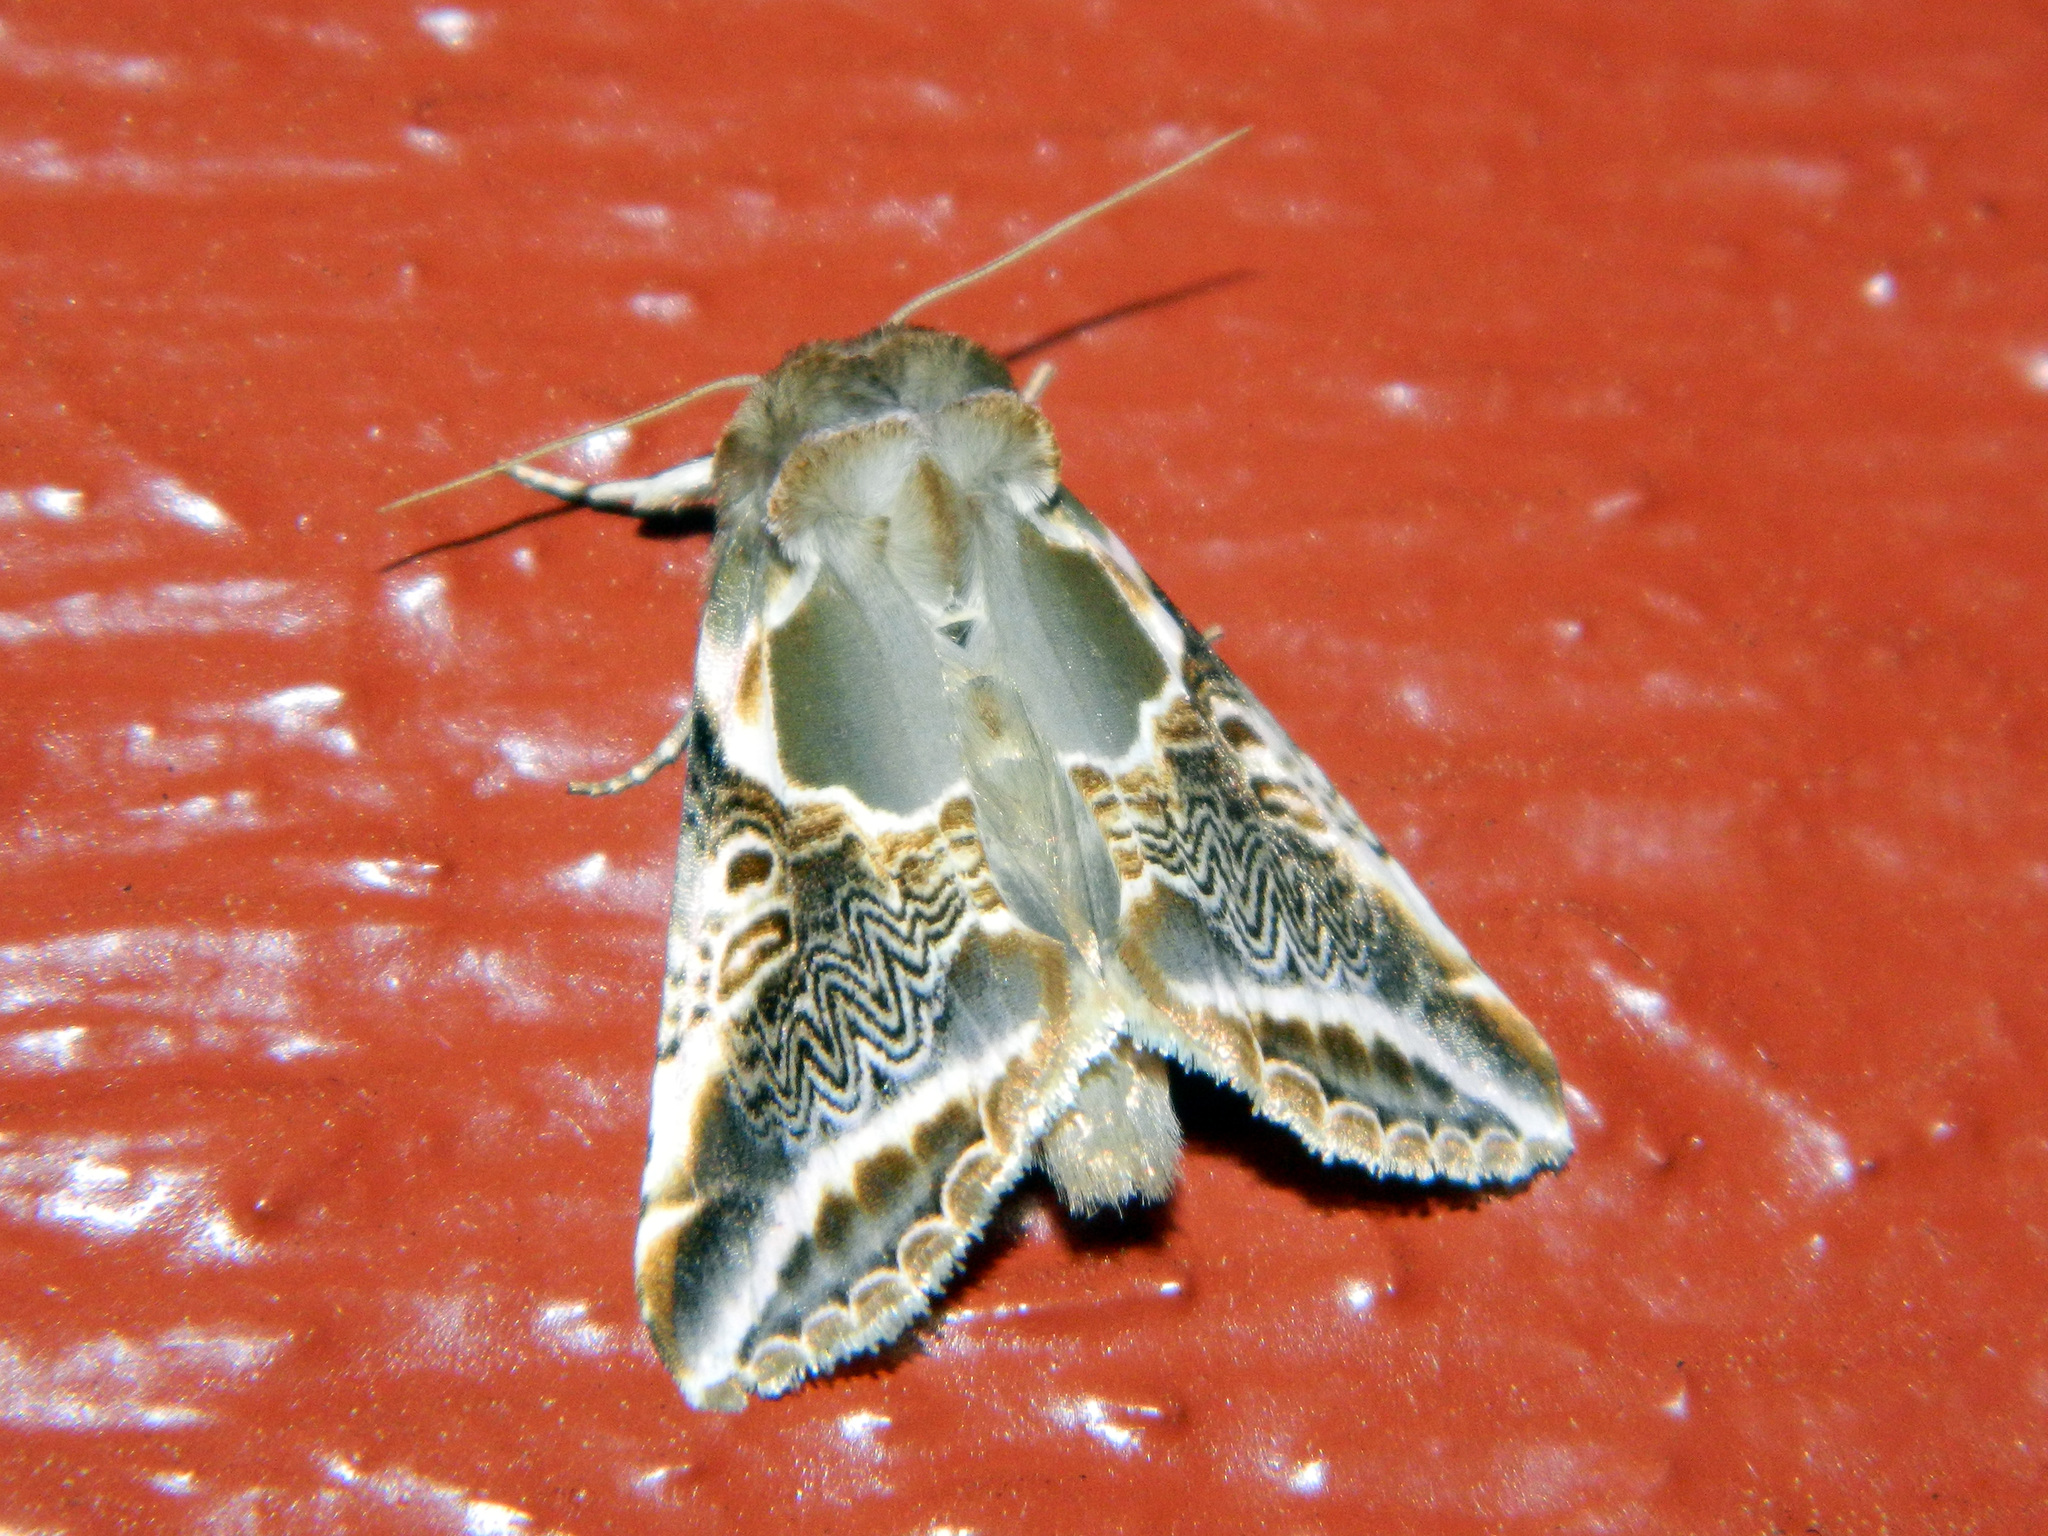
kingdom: Animalia
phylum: Arthropoda
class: Insecta
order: Lepidoptera
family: Drepanidae
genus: Habrosyne
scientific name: Habrosyne scripta
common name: Lettered habrosyne moth
